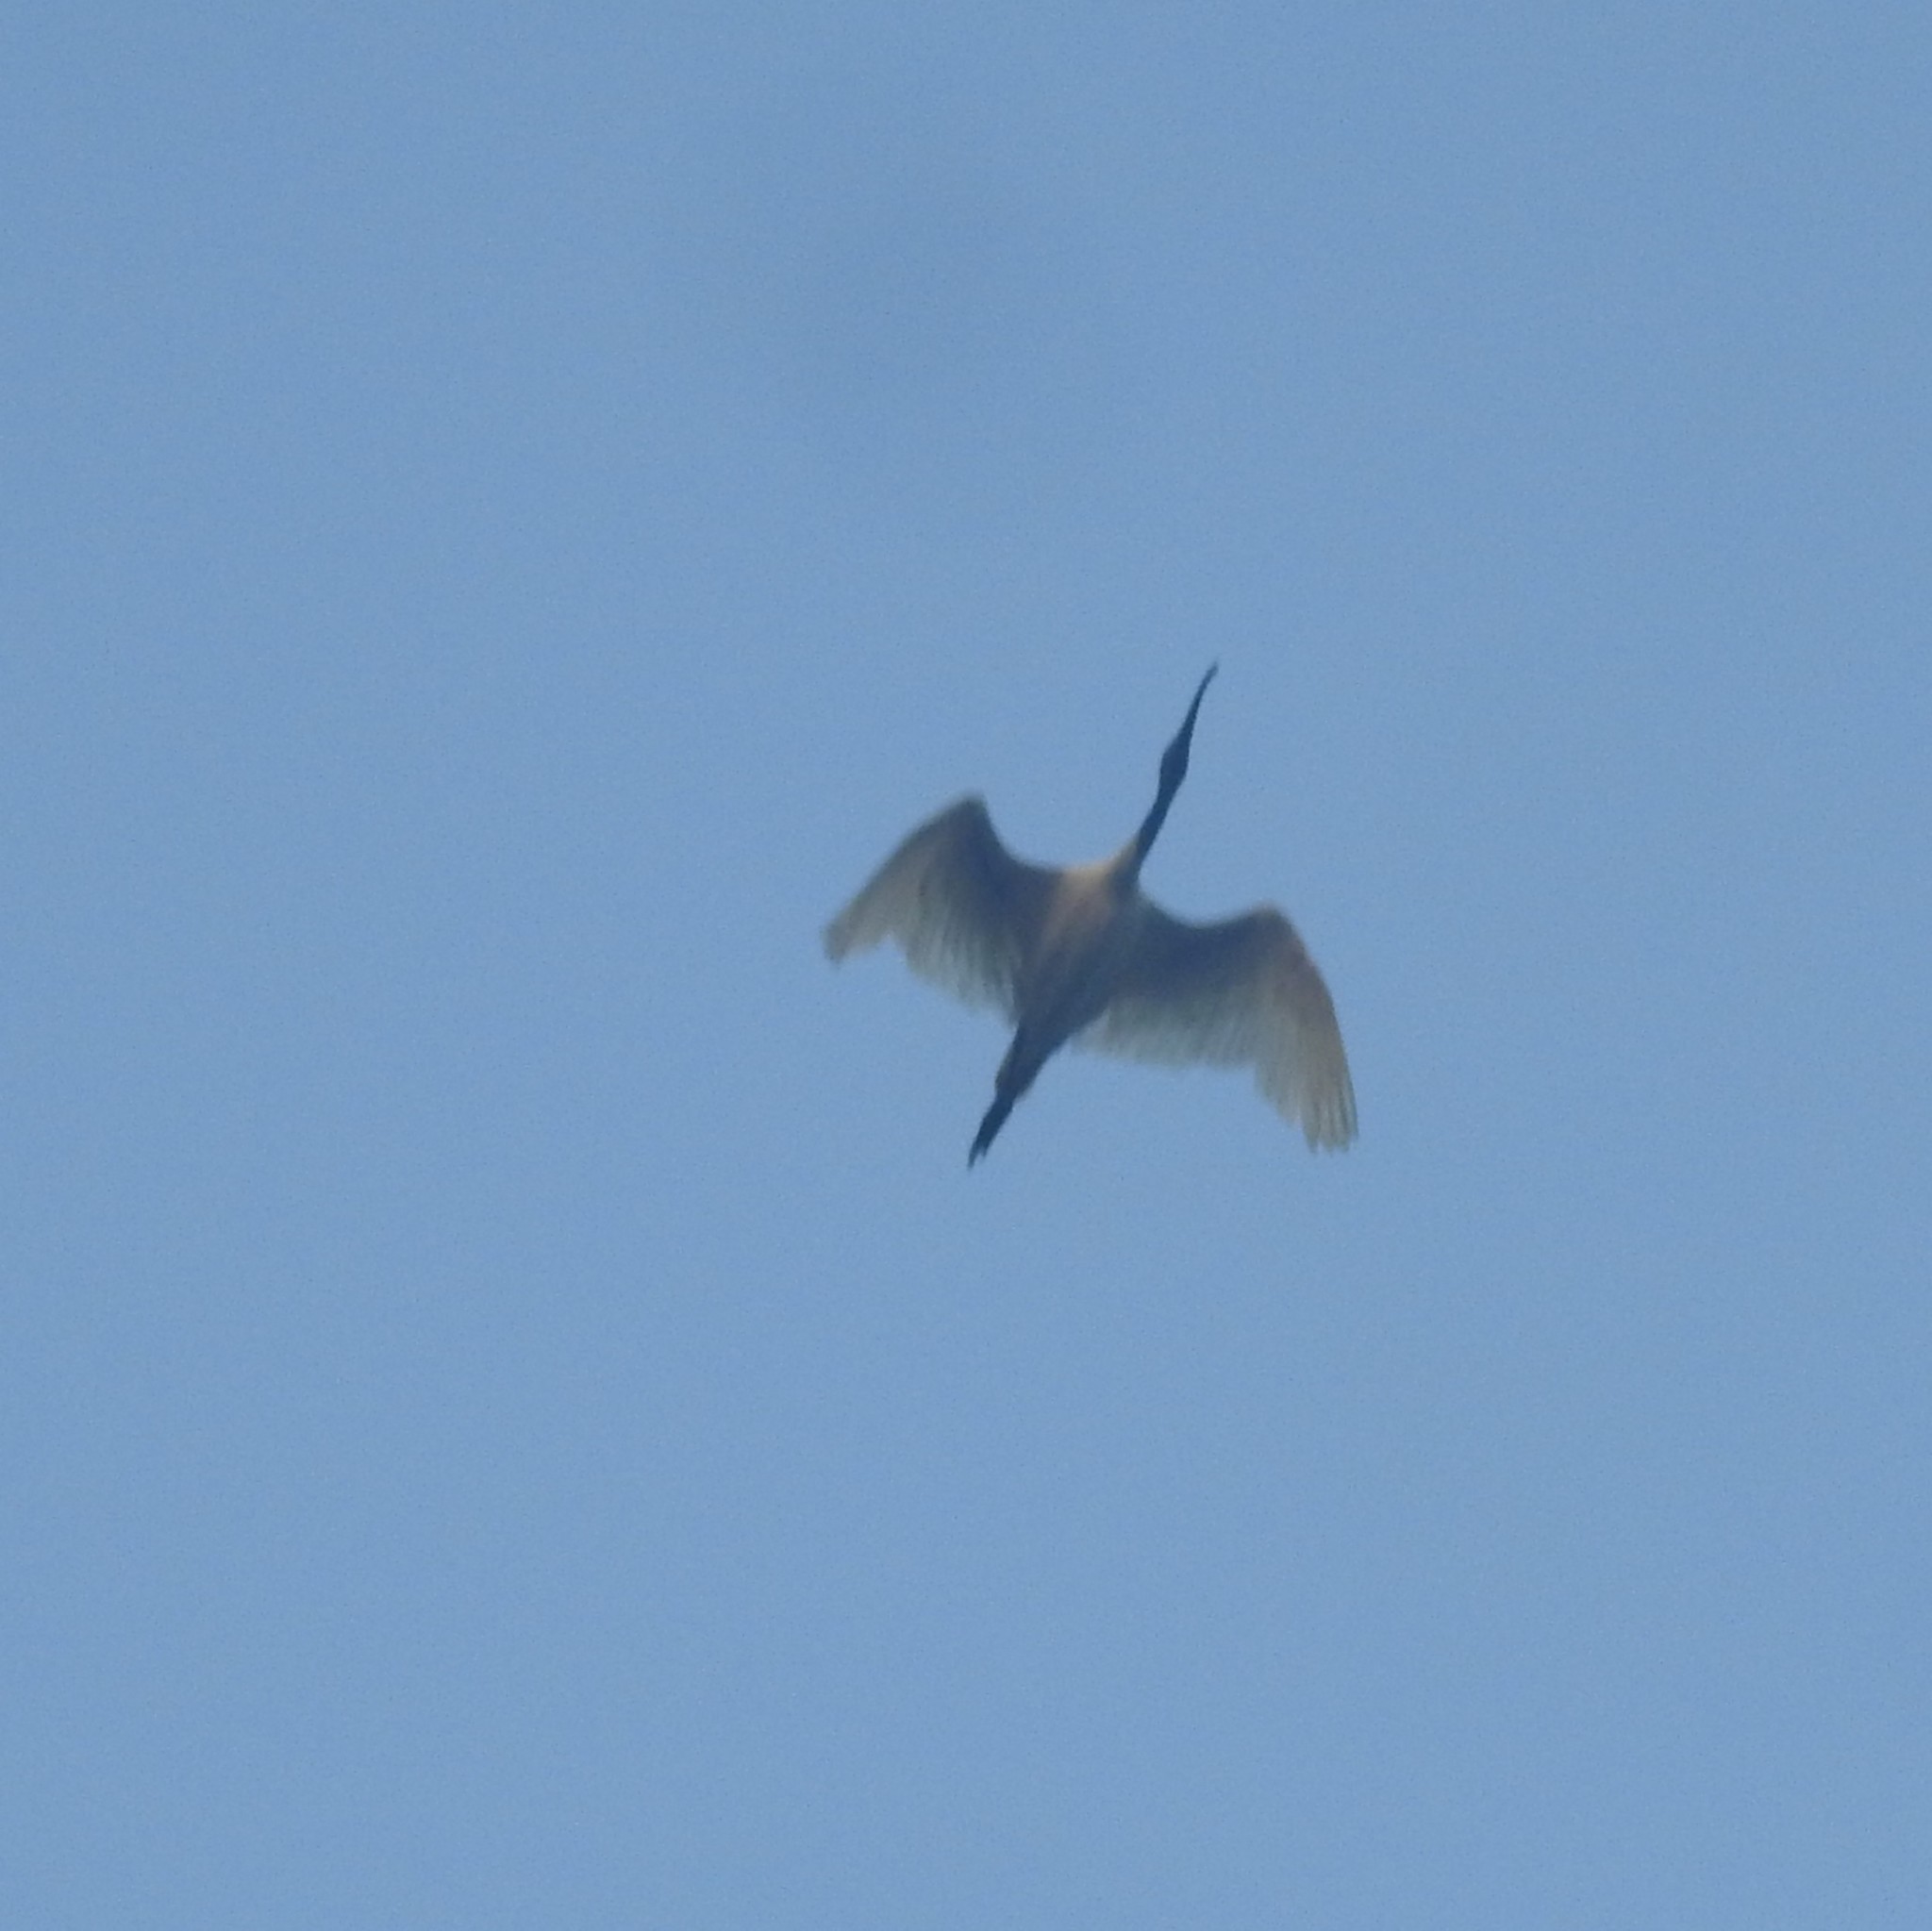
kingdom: Animalia
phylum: Chordata
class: Aves
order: Pelecaniformes
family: Threskiornithidae
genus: Threskiornis
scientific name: Threskiornis melanocephalus
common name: Black-headed ibis
